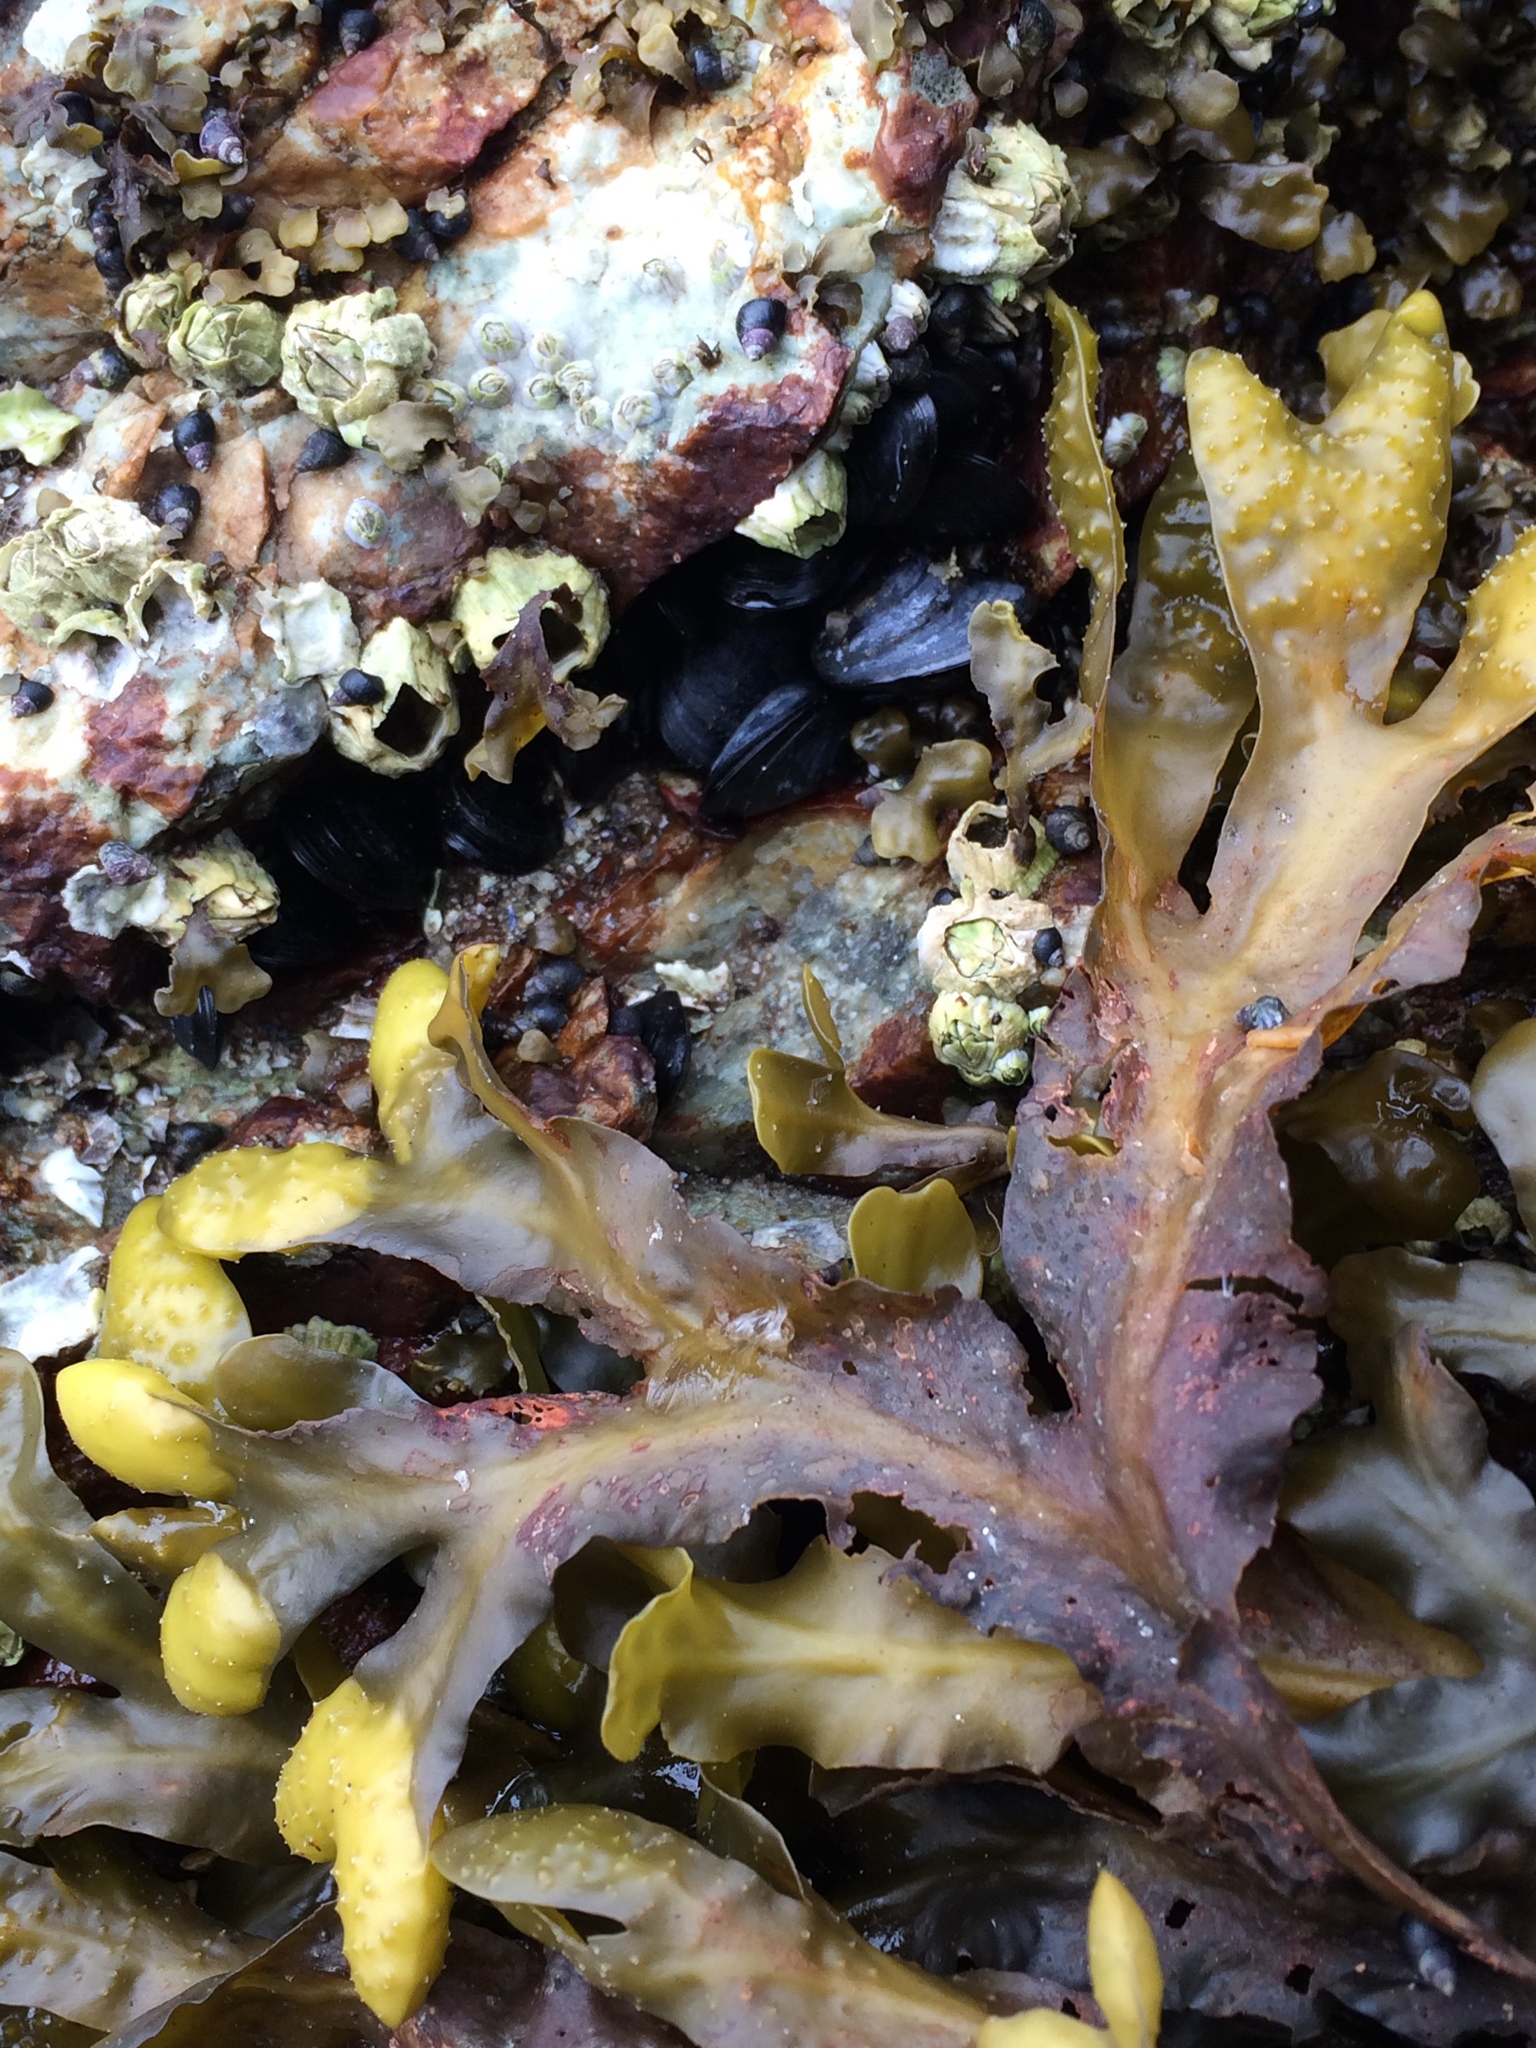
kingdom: Chromista
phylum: Ochrophyta
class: Phaeophyceae
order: Fucales
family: Fucaceae
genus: Fucus
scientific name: Fucus distichus
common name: Rockweed
